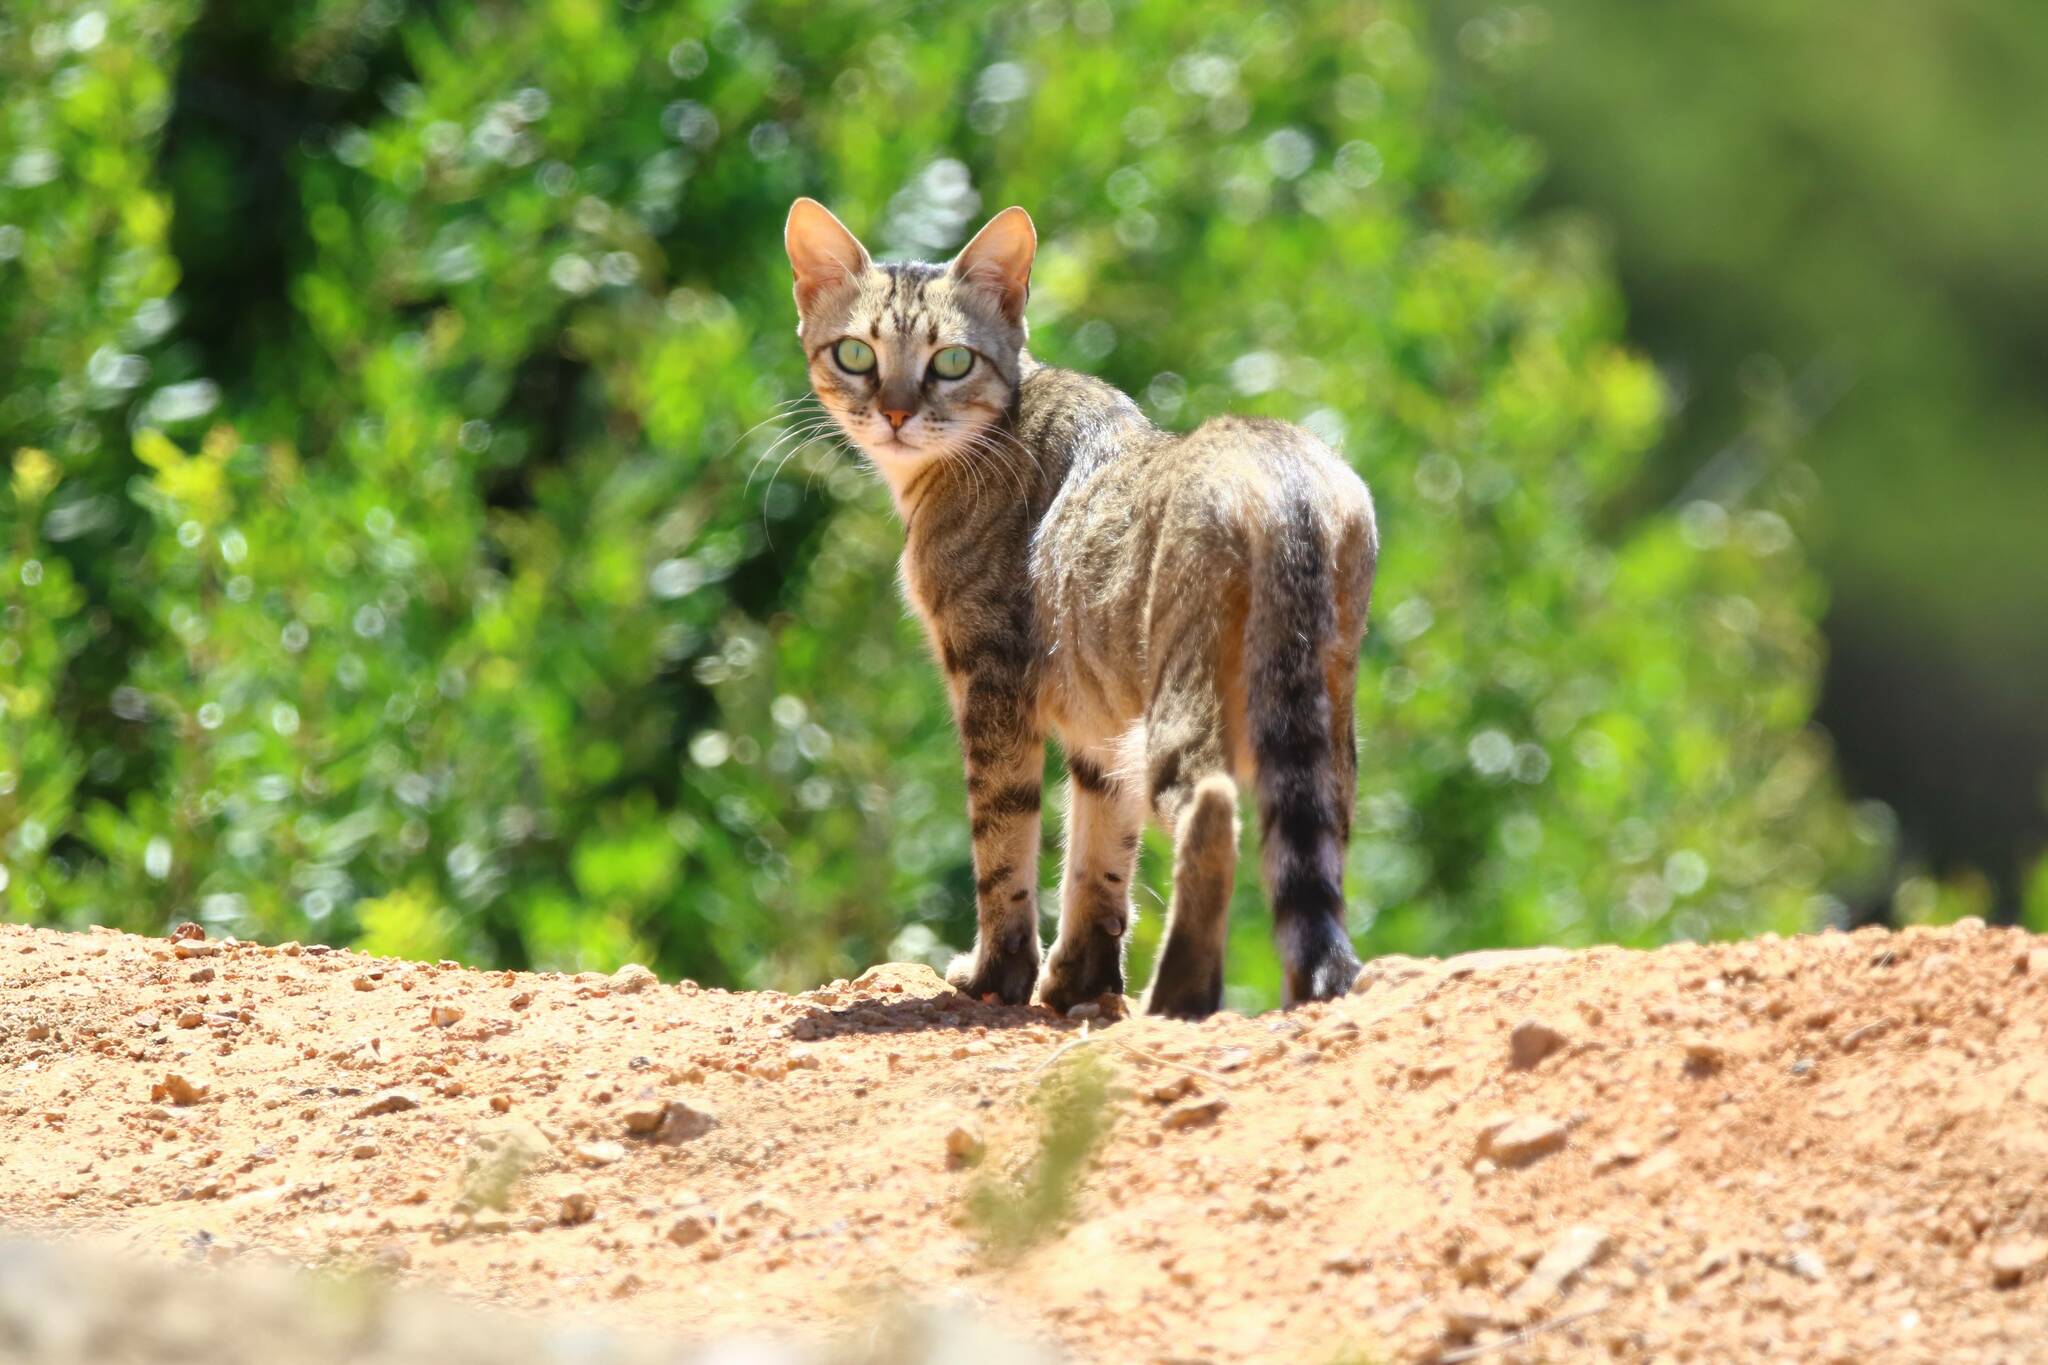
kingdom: Animalia
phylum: Chordata
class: Mammalia
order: Carnivora
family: Felidae
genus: Felis
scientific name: Felis catus
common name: Domestic cat
